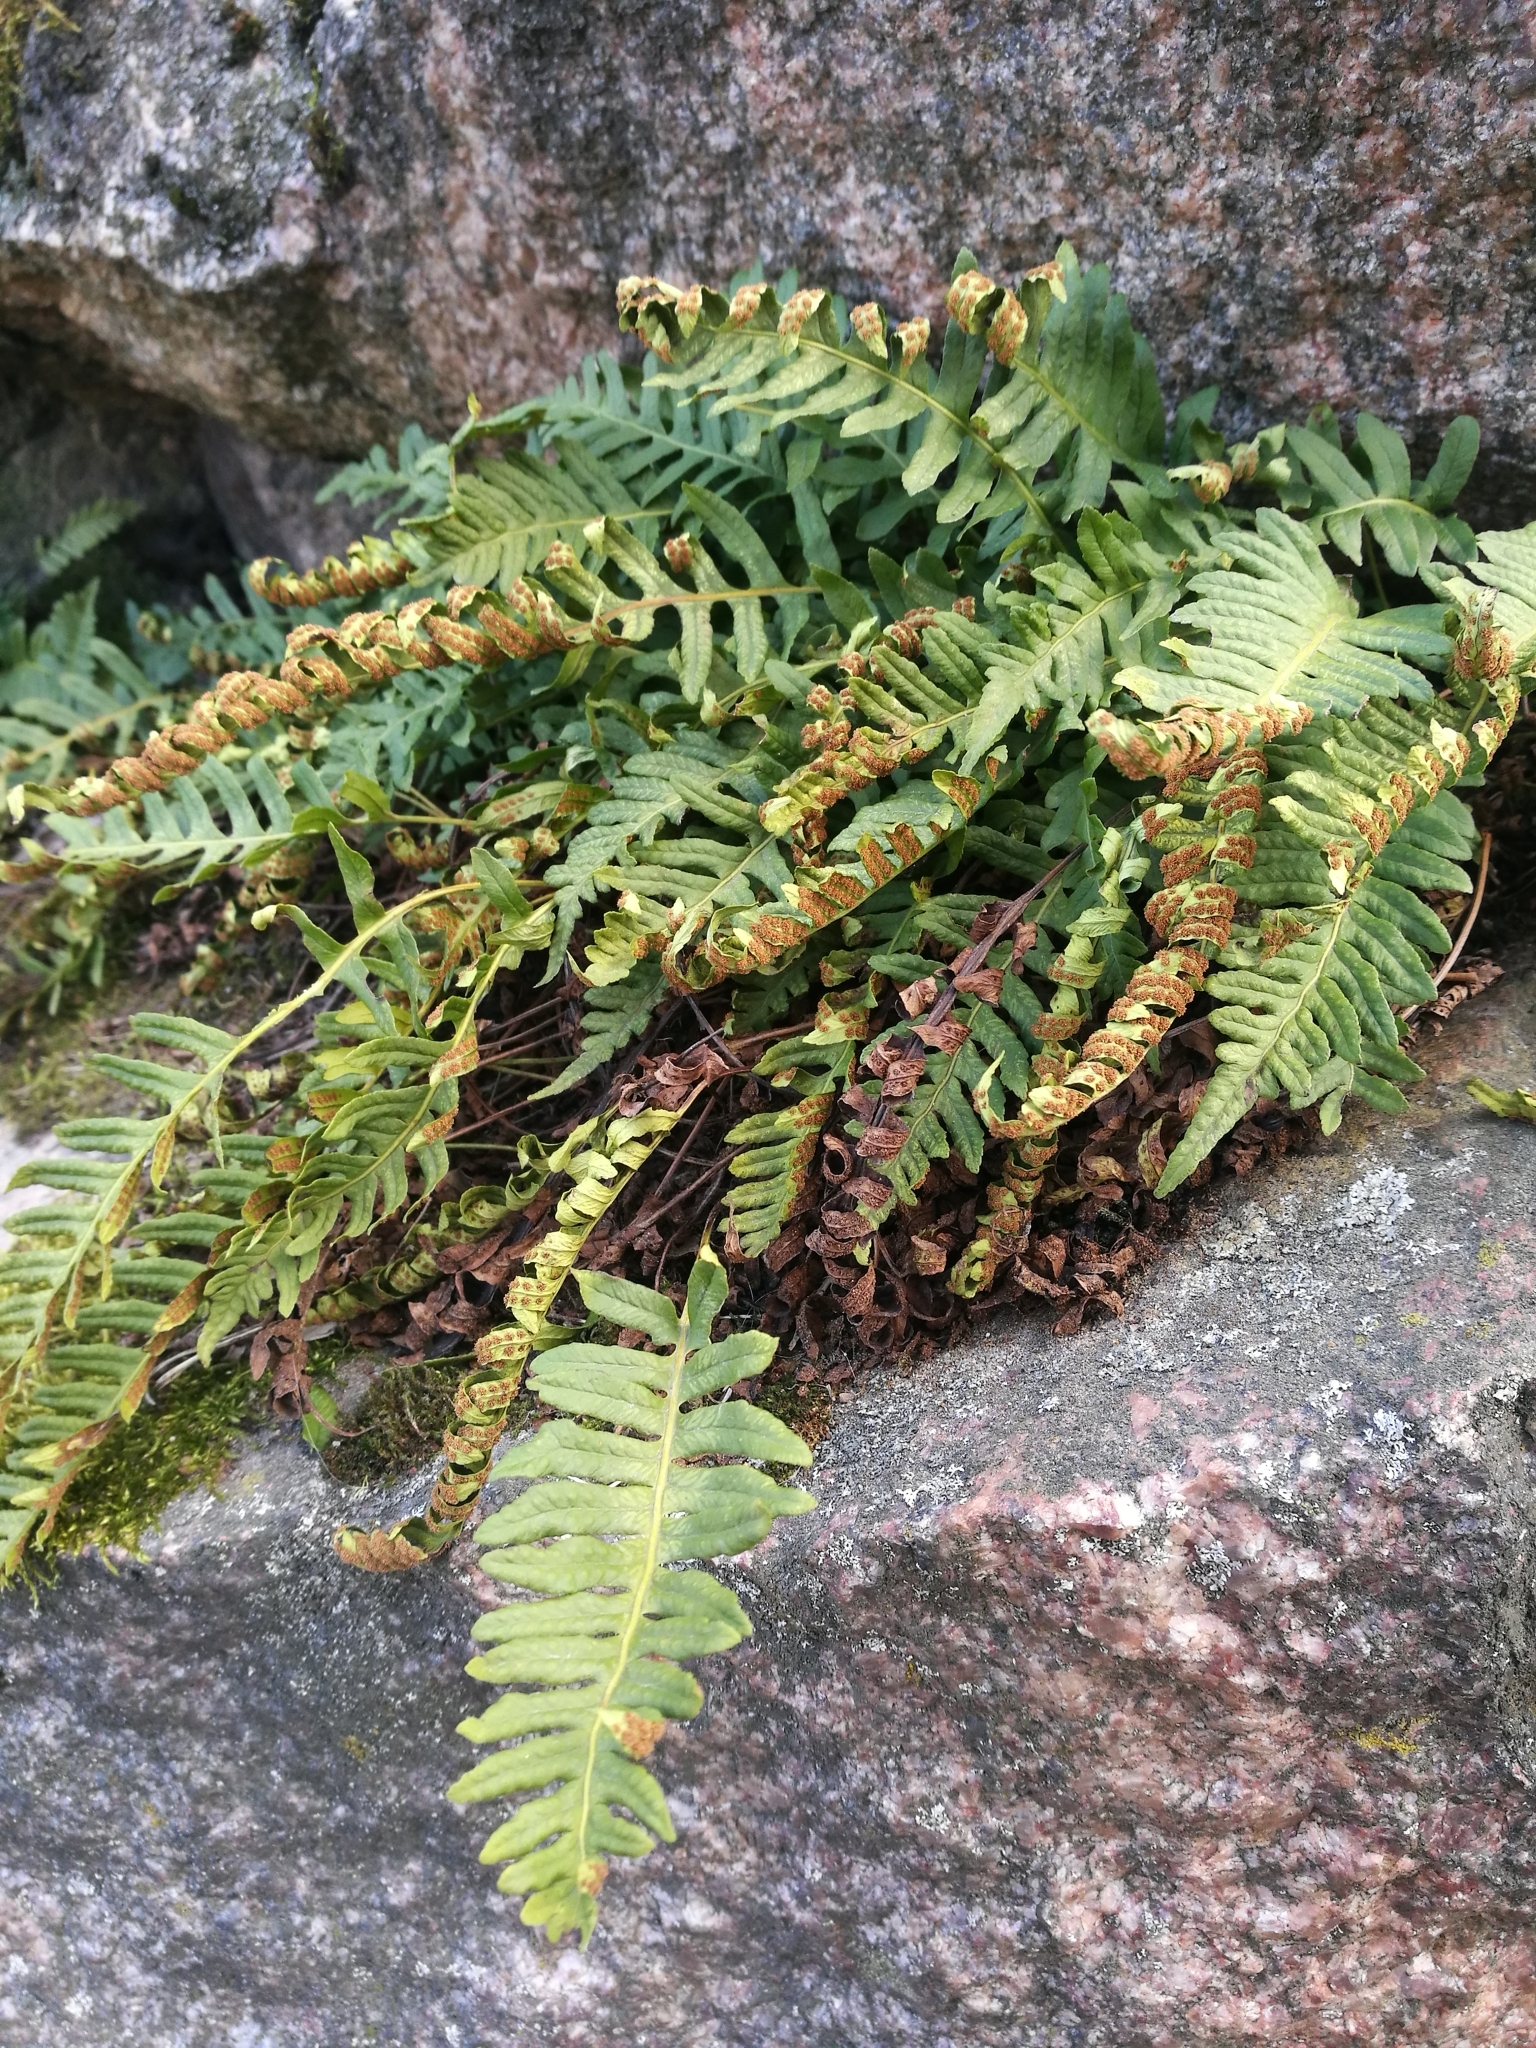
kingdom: Plantae
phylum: Tracheophyta
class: Polypodiopsida
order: Polypodiales
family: Polypodiaceae
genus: Polypodium
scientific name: Polypodium vulgare
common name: Common polypody
